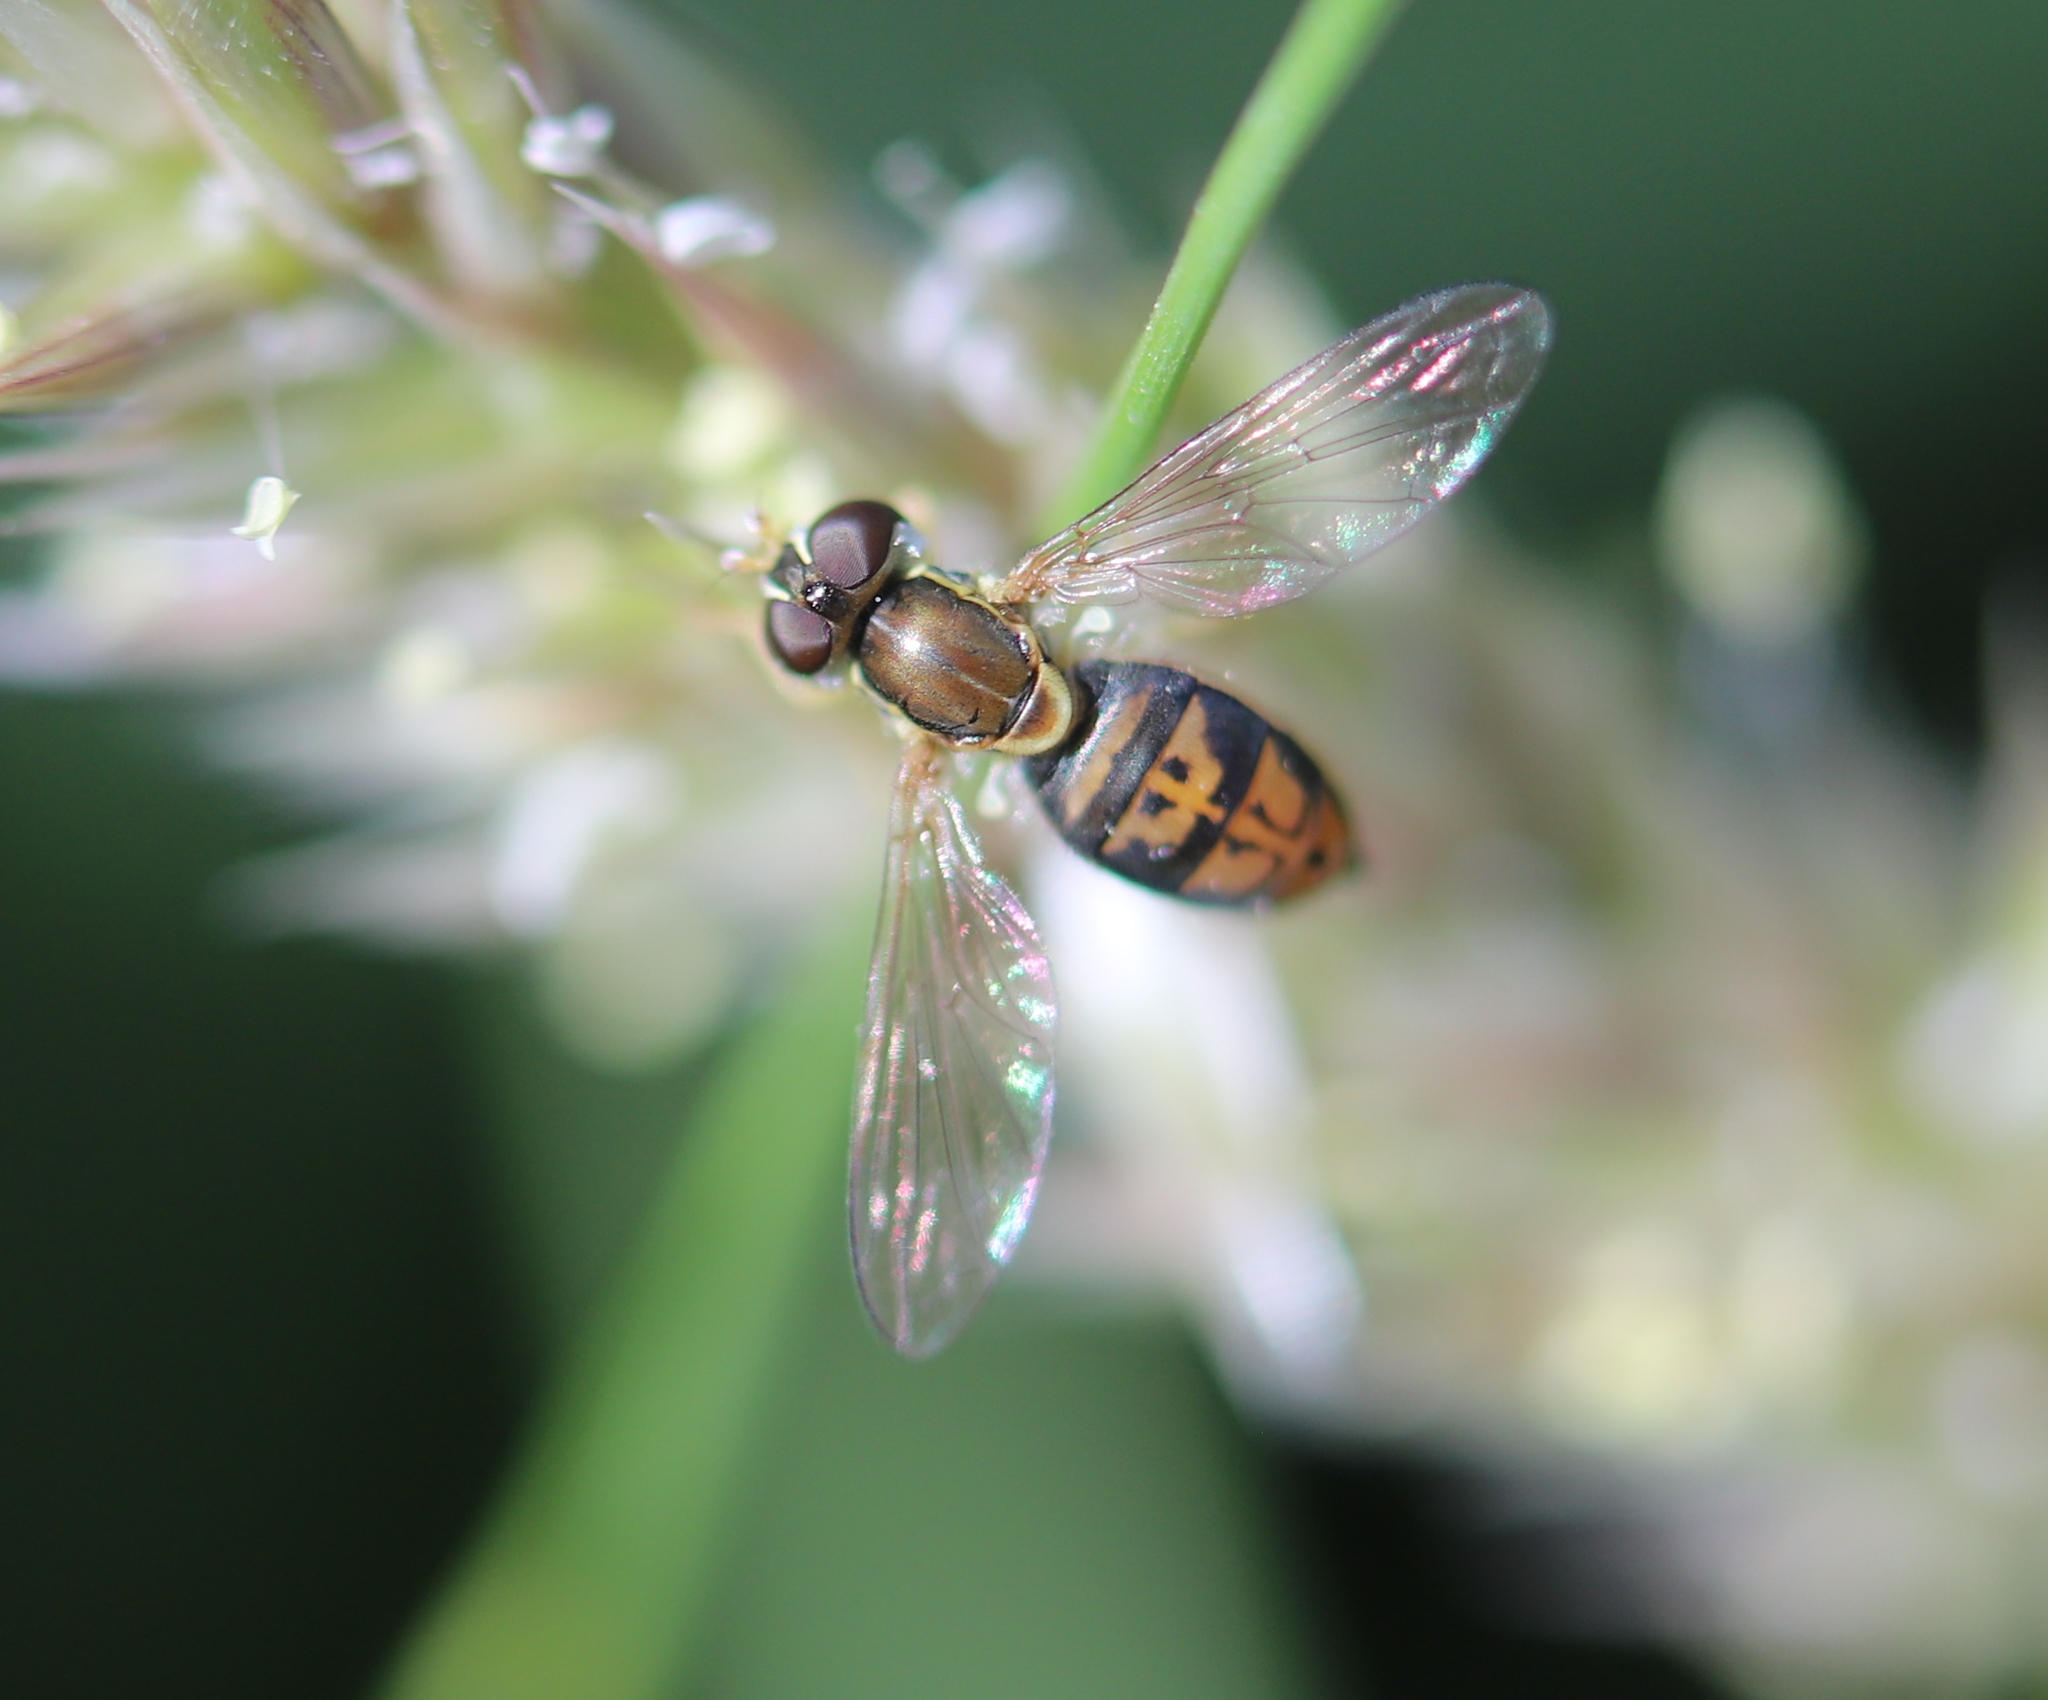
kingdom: Animalia
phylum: Arthropoda
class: Insecta
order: Diptera
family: Syrphidae
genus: Toxomerus
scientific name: Toxomerus marginatus
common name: Syrphid fly
